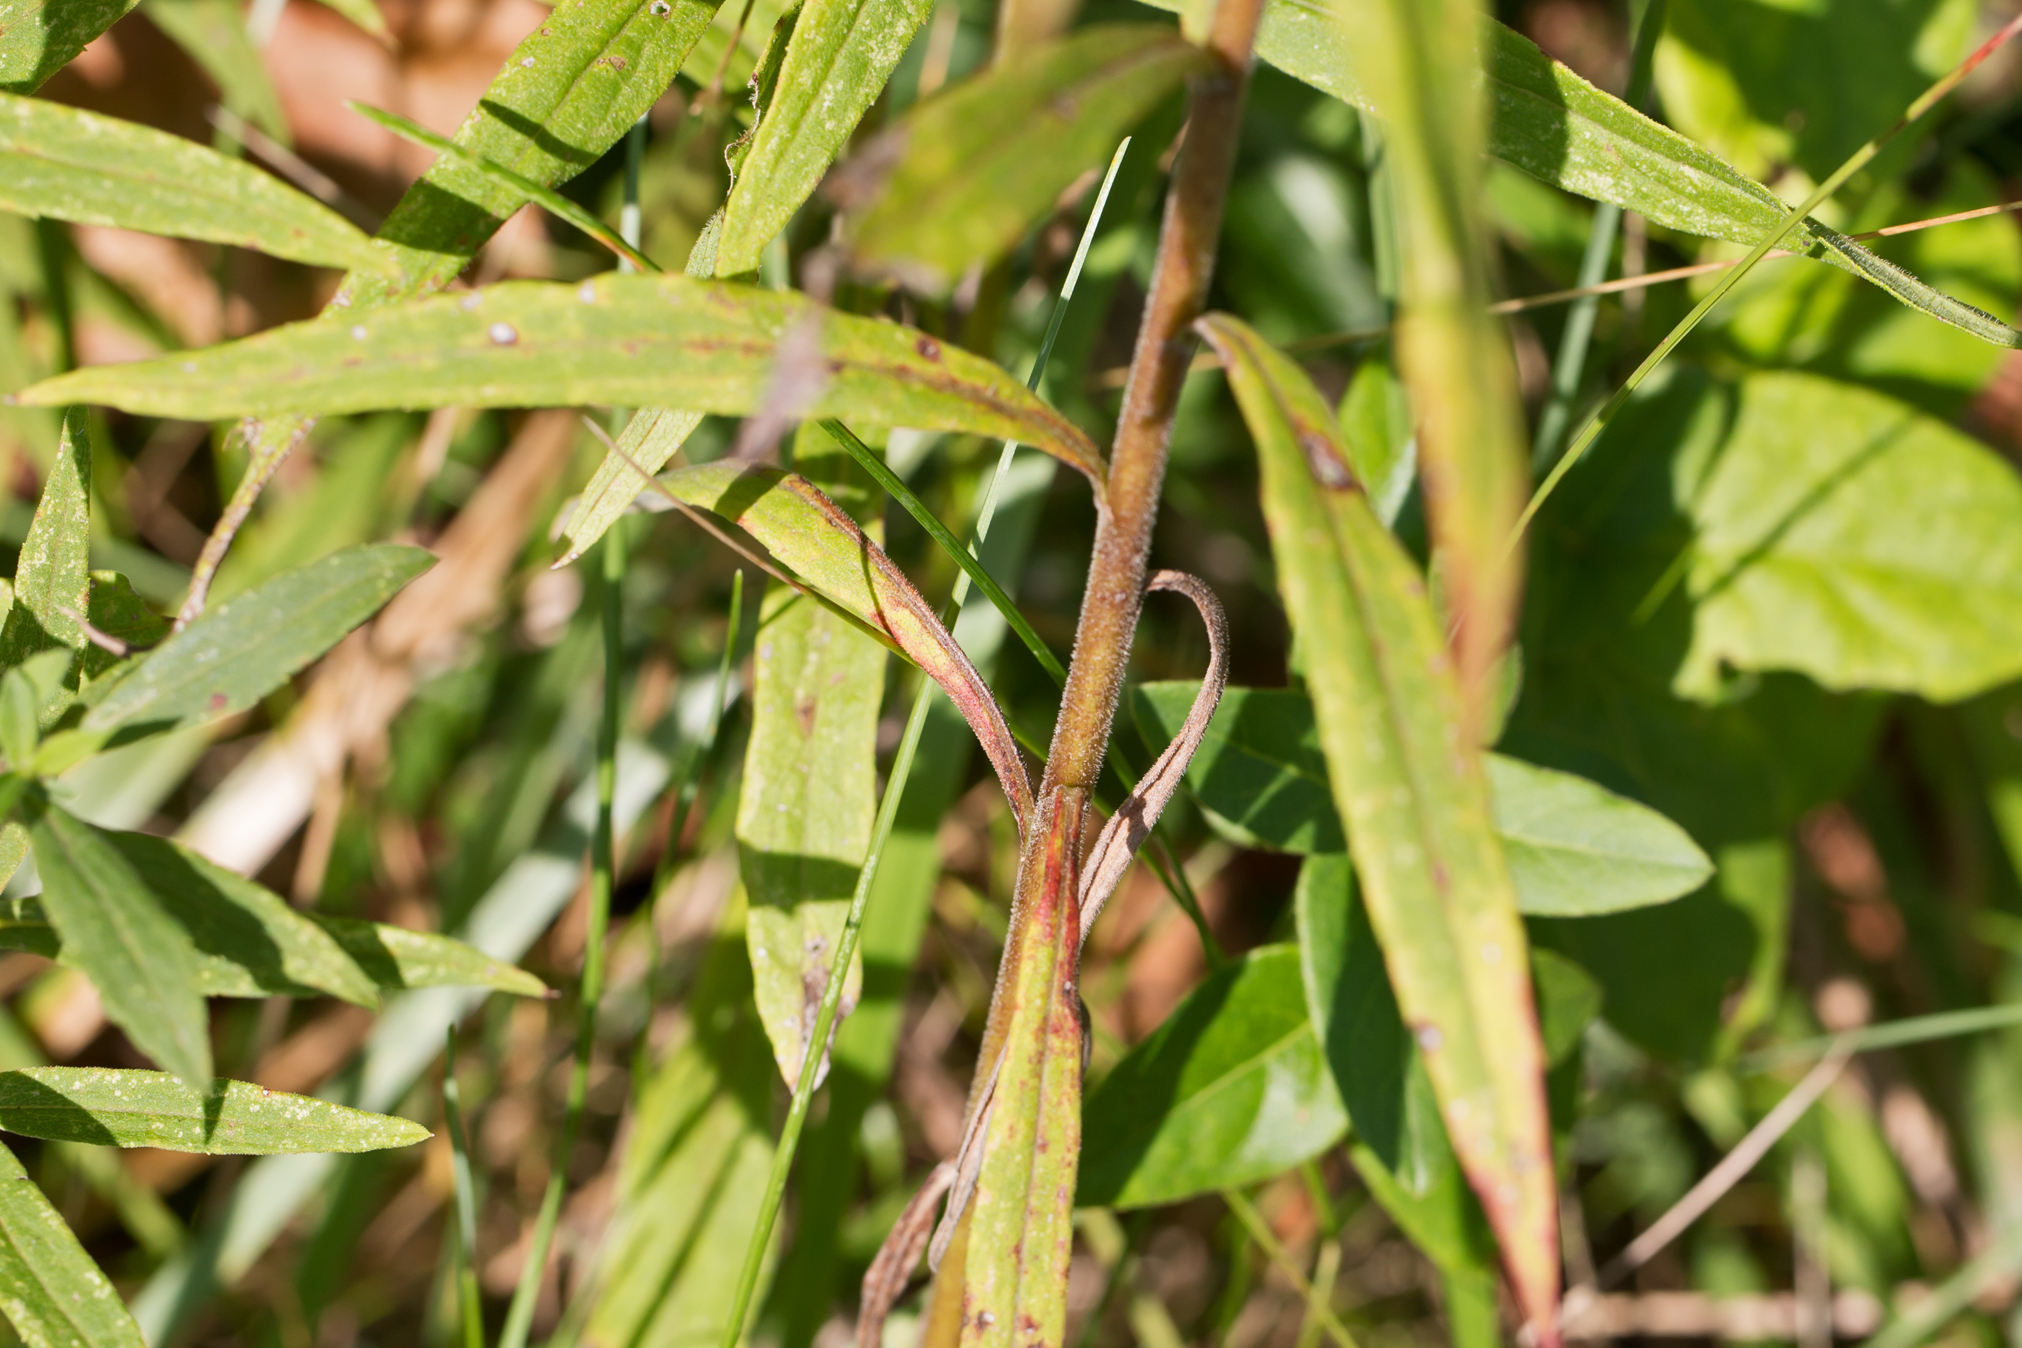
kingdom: Plantae
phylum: Tracheophyta
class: Magnoliopsida
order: Asterales
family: Asteraceae
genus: Solidago
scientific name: Solidago altissima
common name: Late goldenrod
